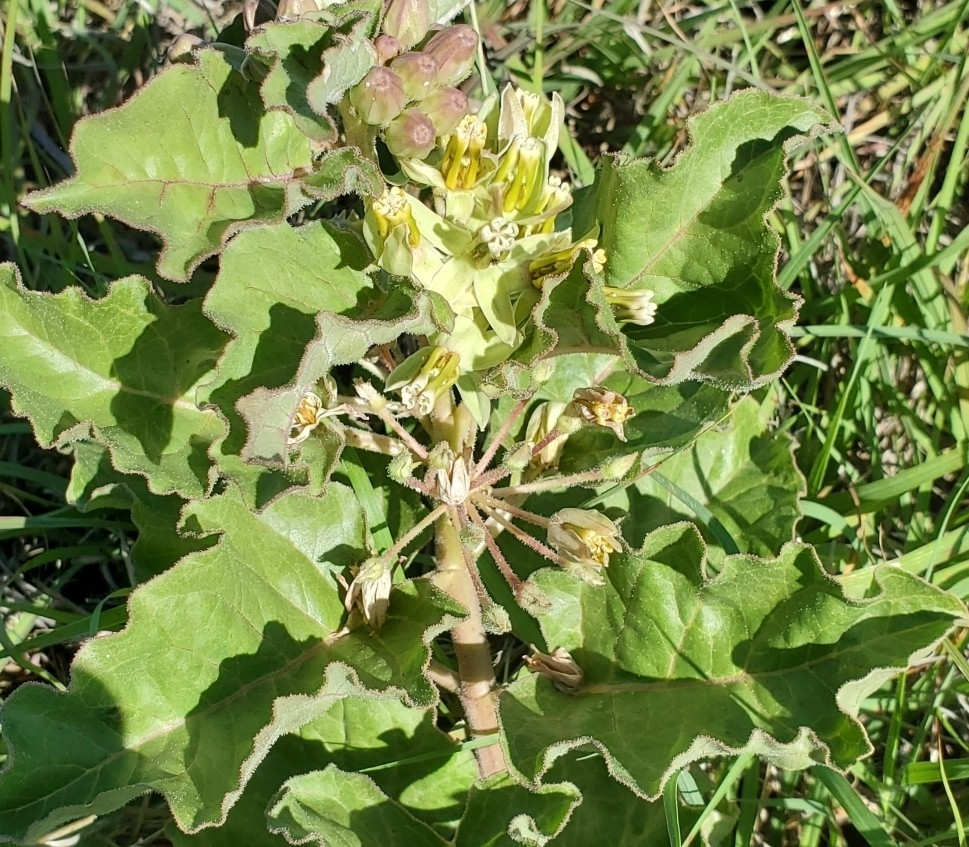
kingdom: Plantae
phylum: Tracheophyta
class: Magnoliopsida
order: Gentianales
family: Apocynaceae
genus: Asclepias
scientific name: Asclepias oenotheroides
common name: Zizotes milkweed
